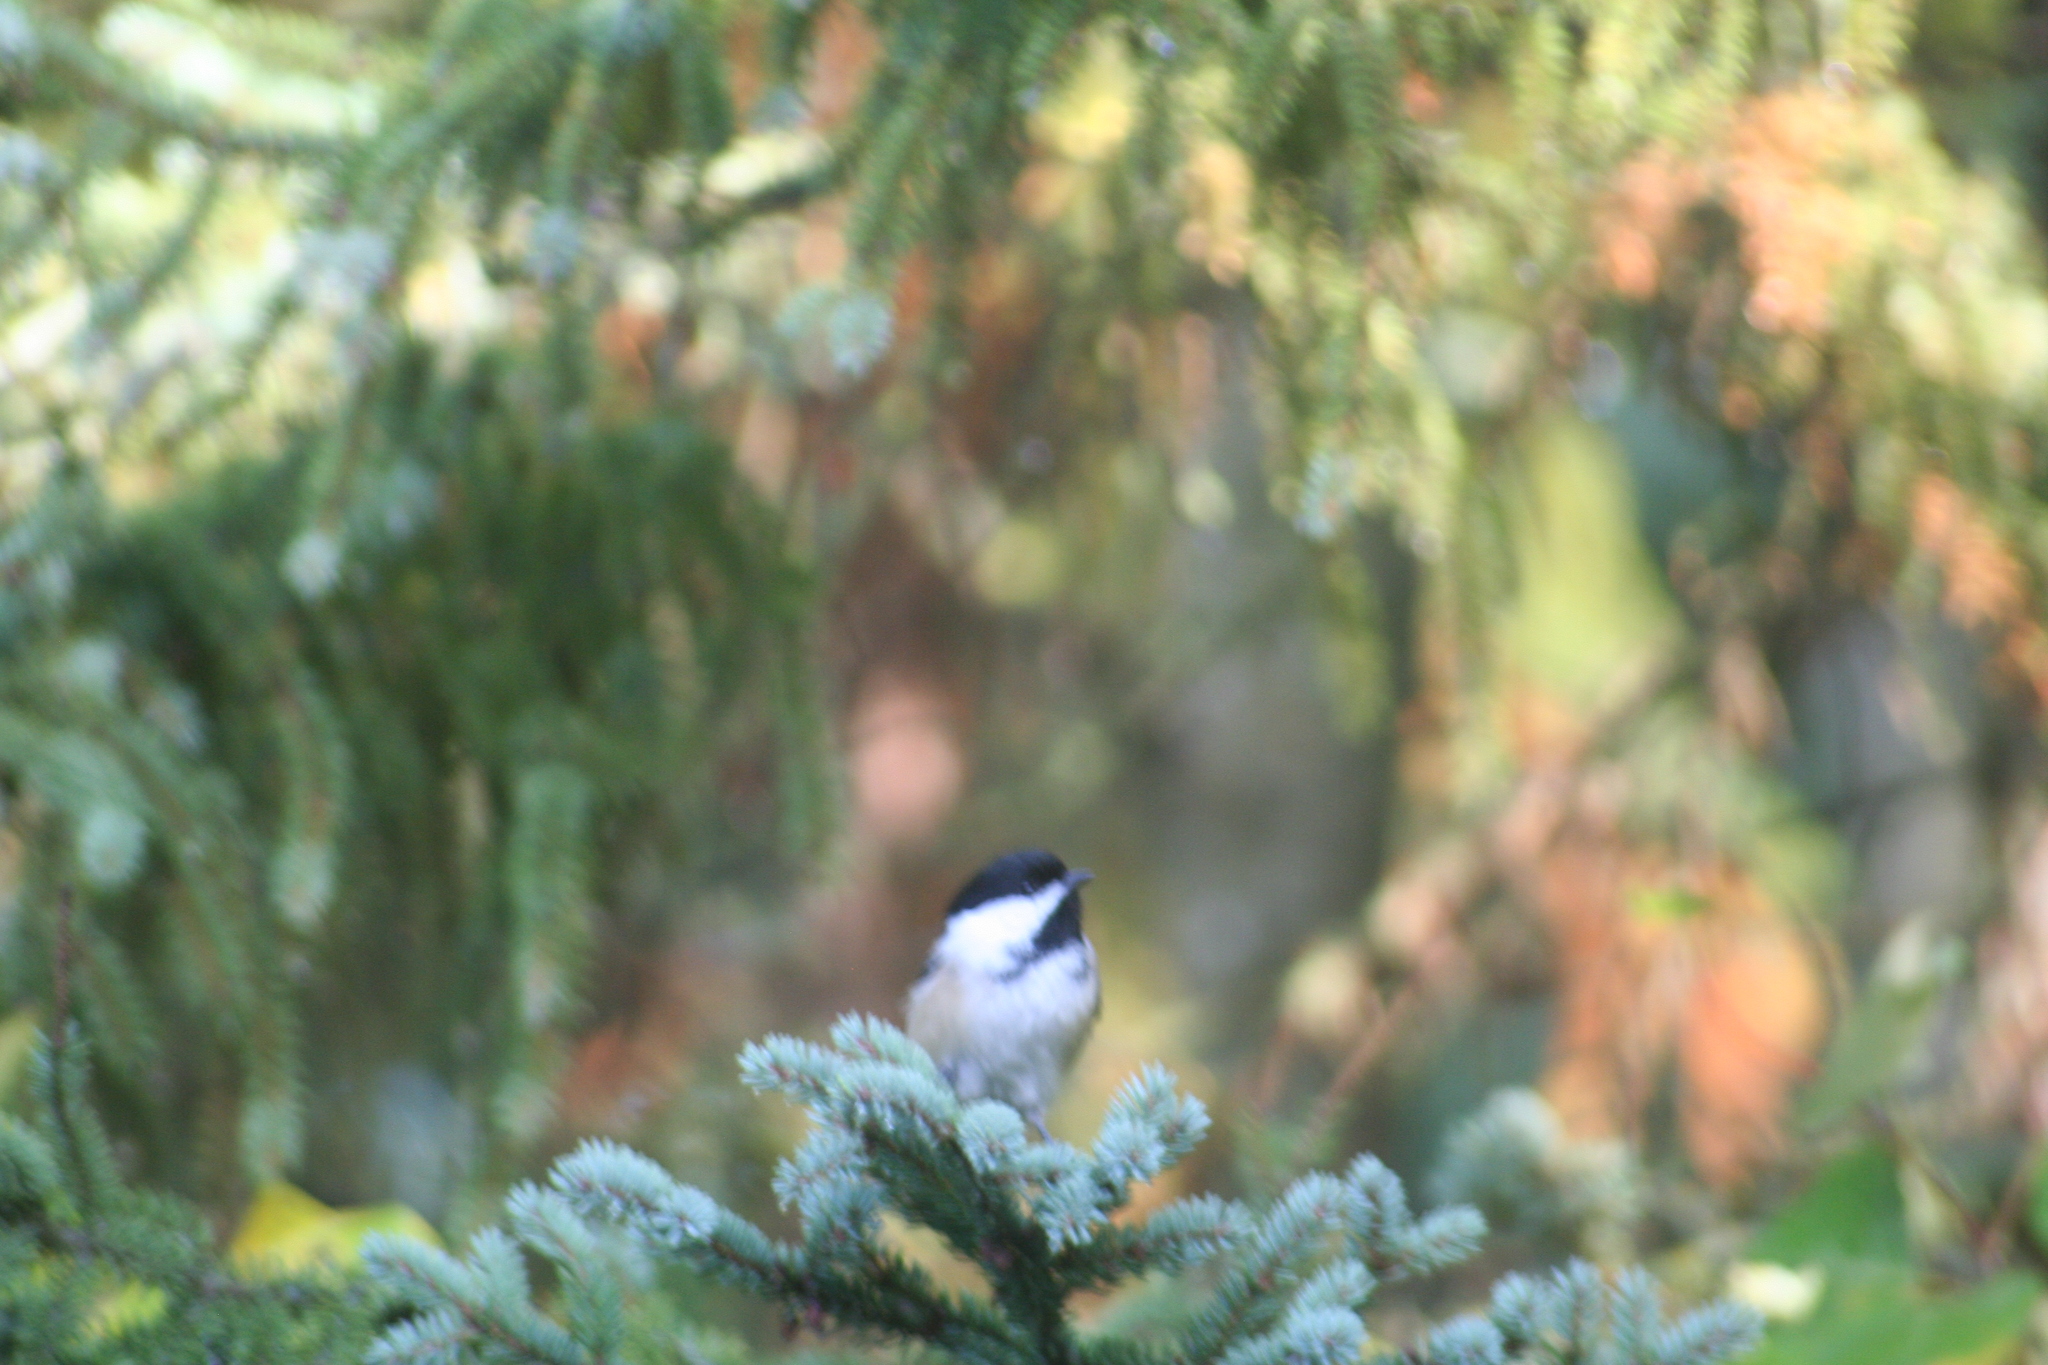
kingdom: Animalia
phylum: Chordata
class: Aves
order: Passeriformes
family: Paridae
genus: Poecile
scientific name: Poecile atricapillus
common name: Black-capped chickadee
